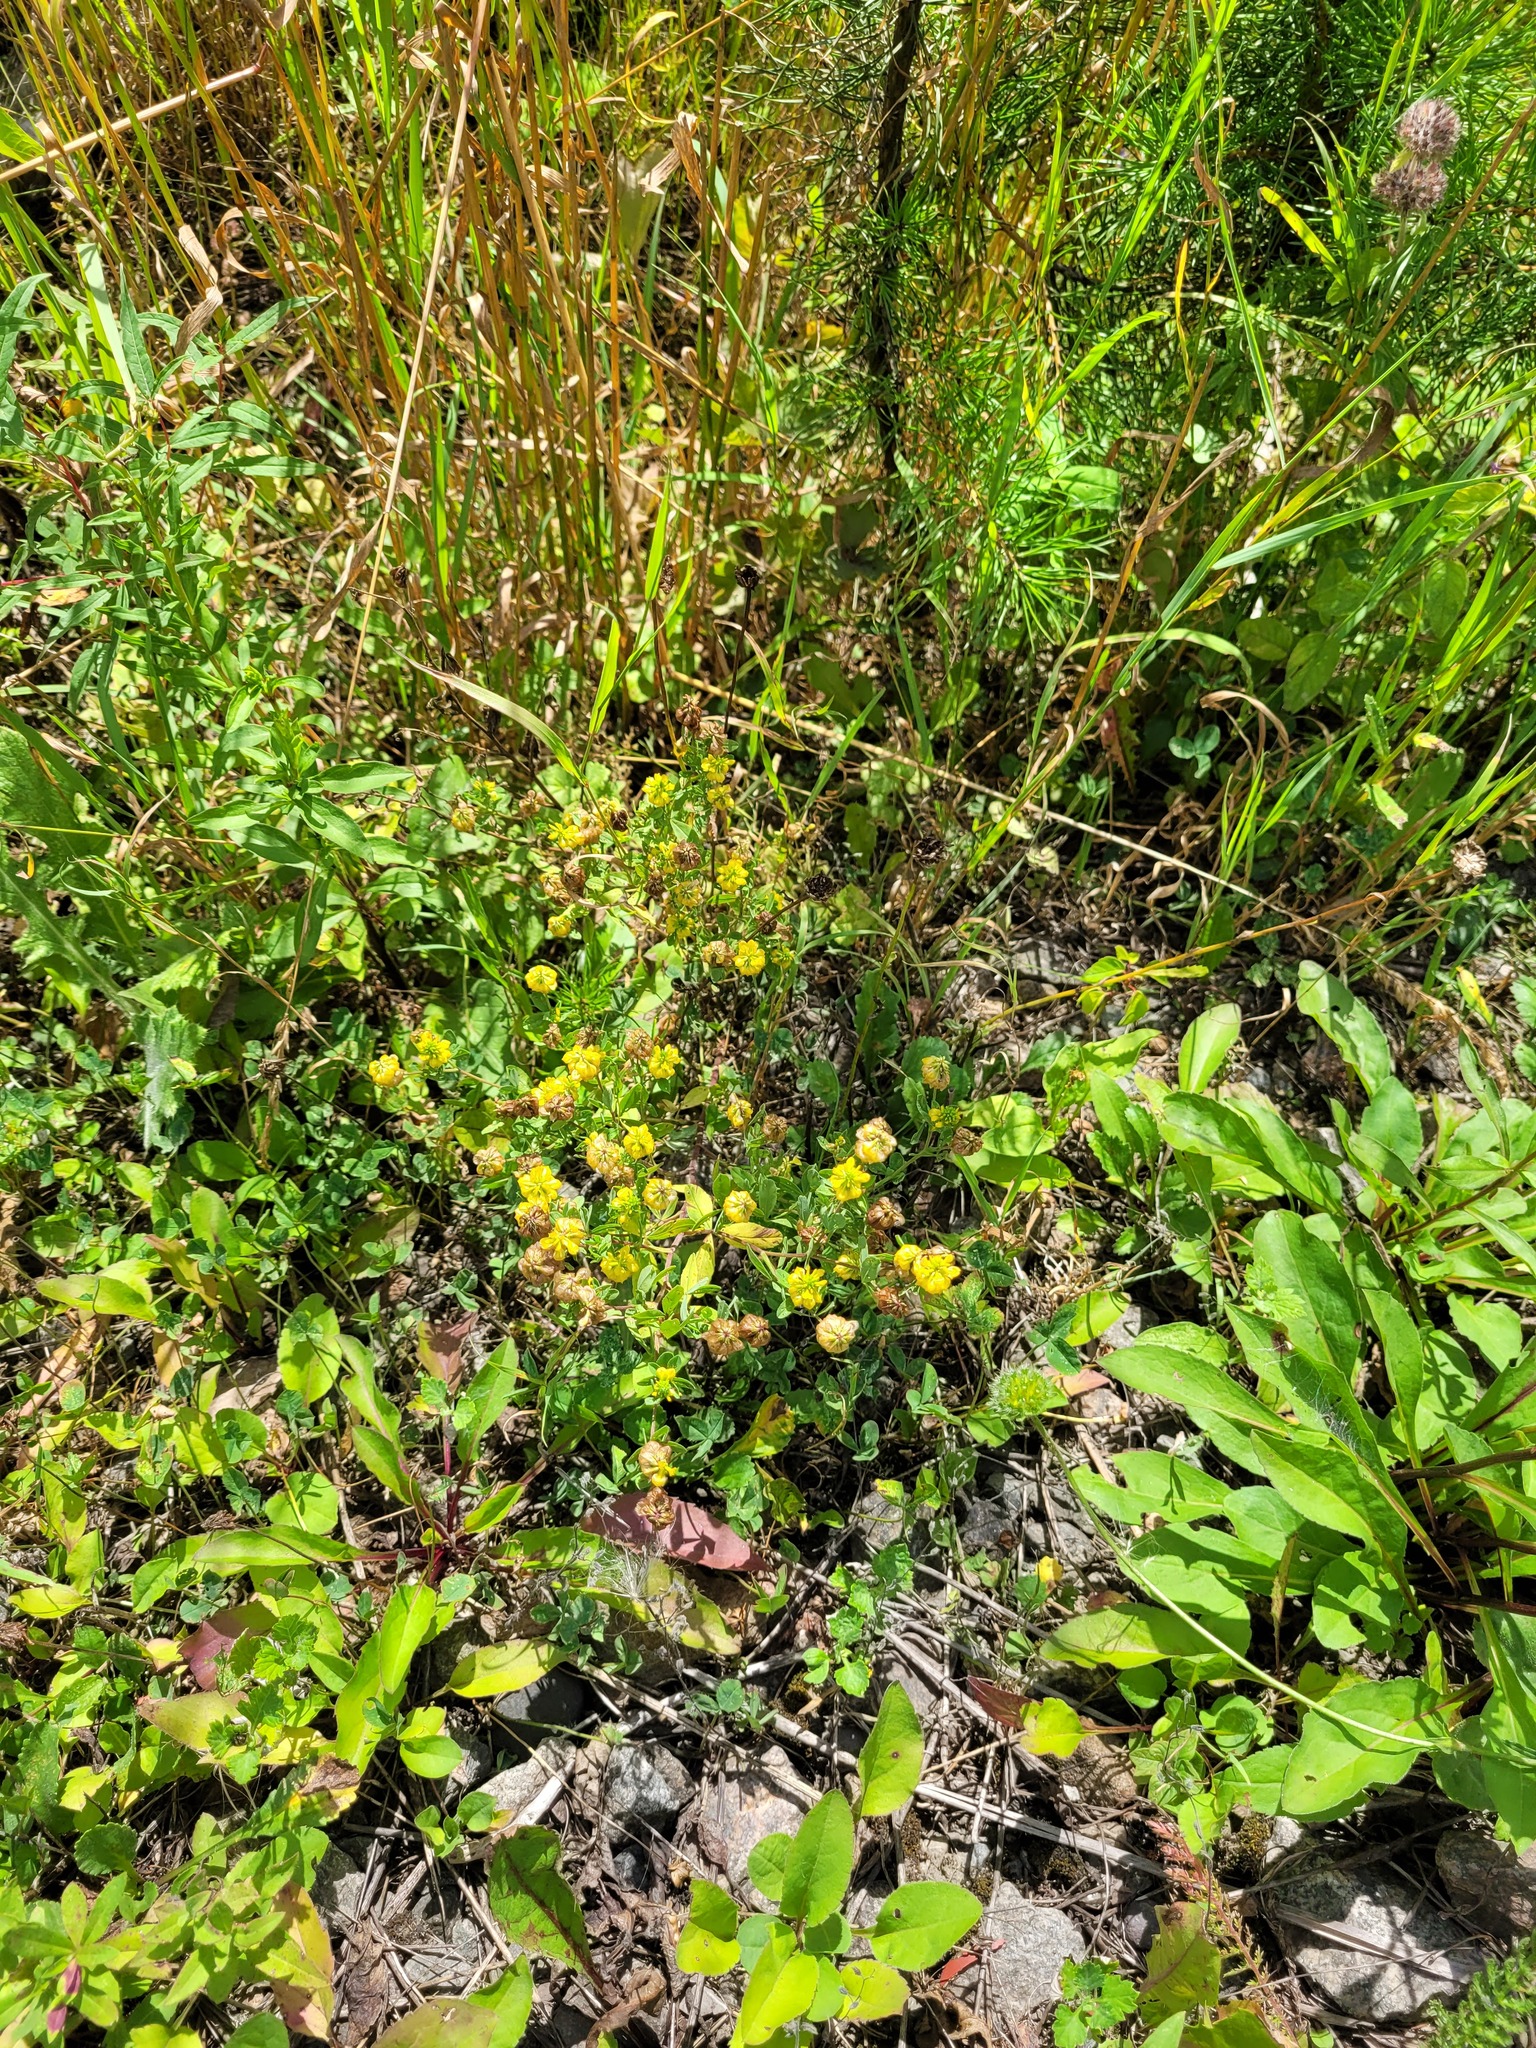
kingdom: Plantae
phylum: Tracheophyta
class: Magnoliopsida
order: Fabales
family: Fabaceae
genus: Trifolium
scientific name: Trifolium aureum
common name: Golden clover
